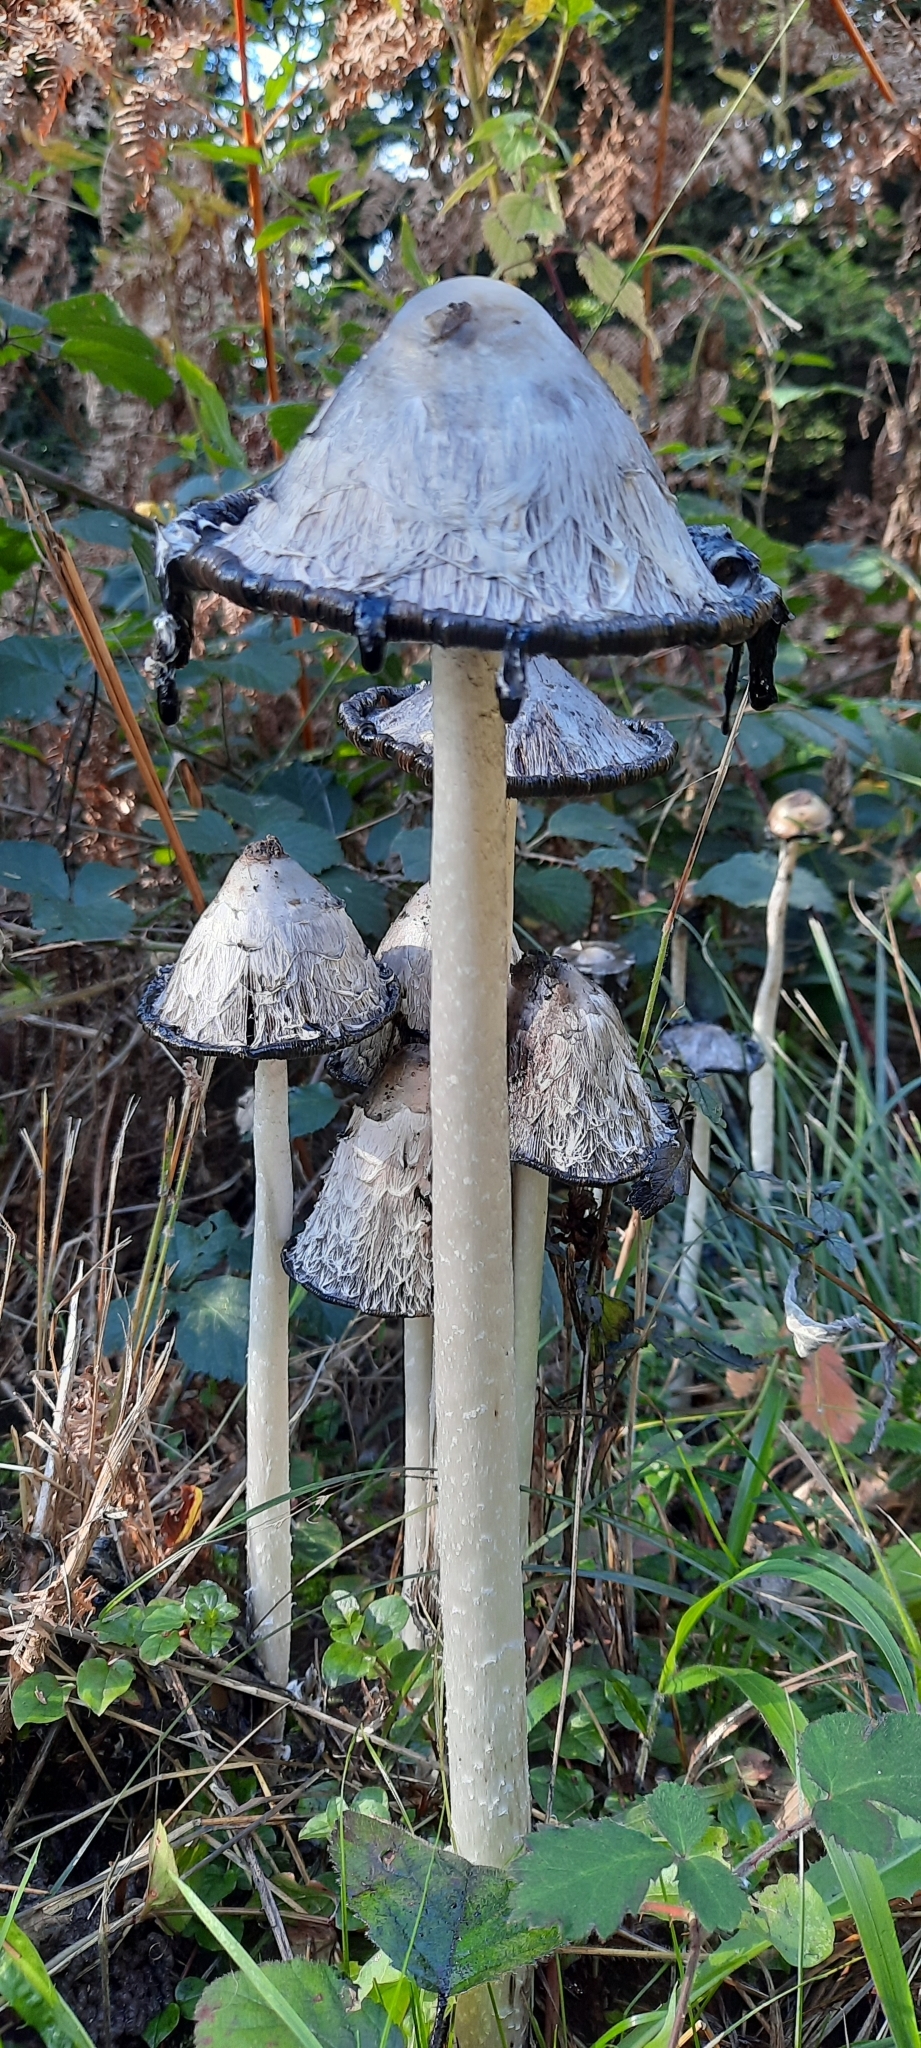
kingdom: Fungi
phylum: Basidiomycota
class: Agaricomycetes
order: Agaricales
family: Agaricaceae
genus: Coprinus
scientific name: Coprinus comatus
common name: Lawyer's wig
